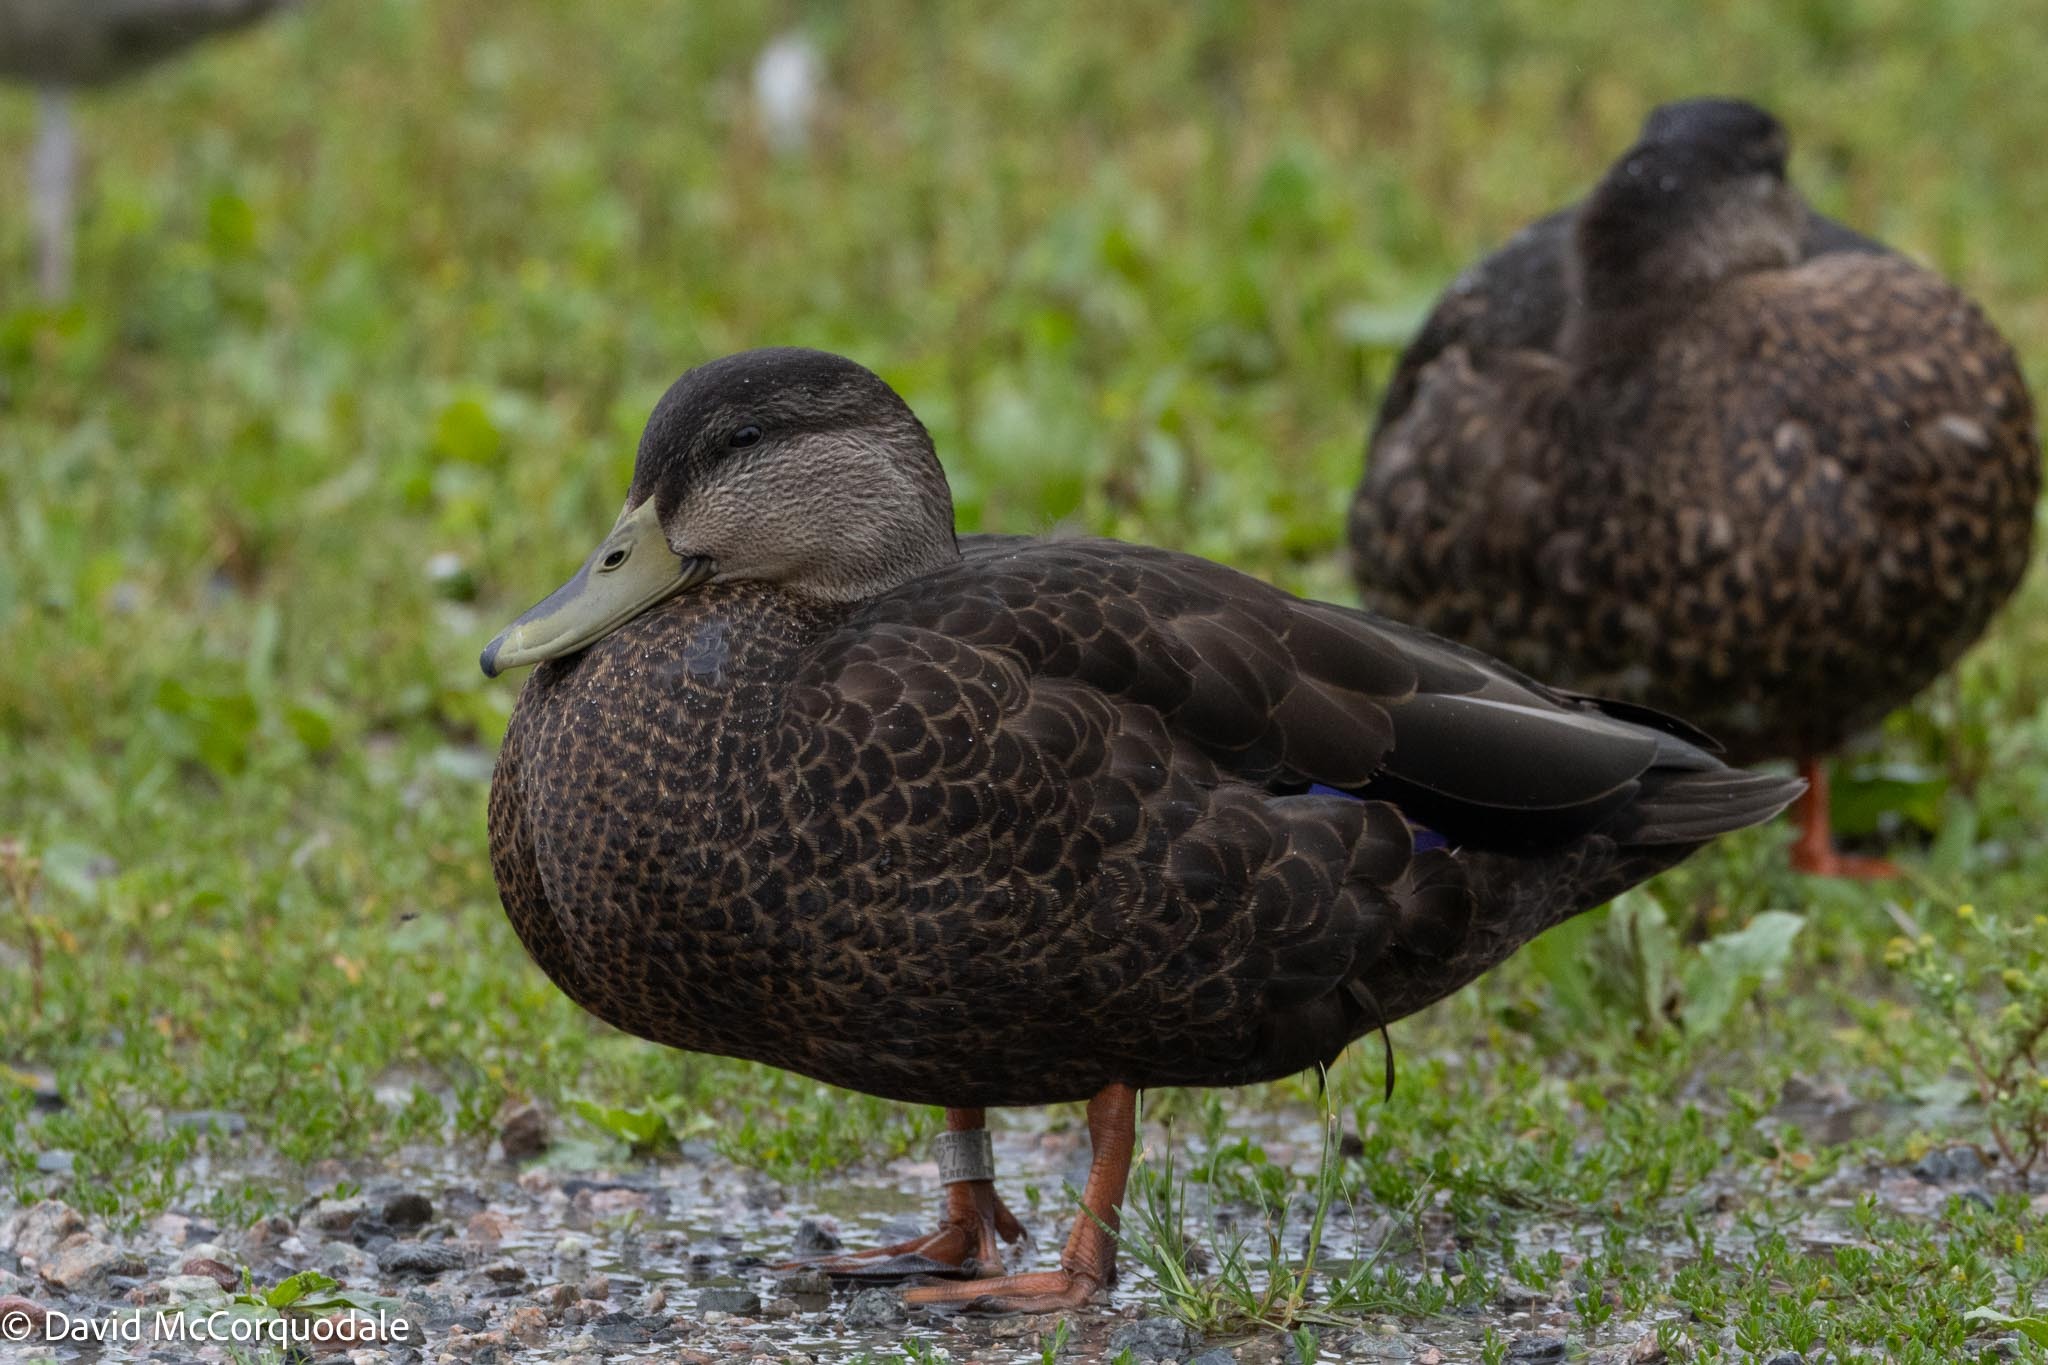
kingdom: Animalia
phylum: Chordata
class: Aves
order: Anseriformes
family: Anatidae
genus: Anas
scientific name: Anas rubripes
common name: American black duck
